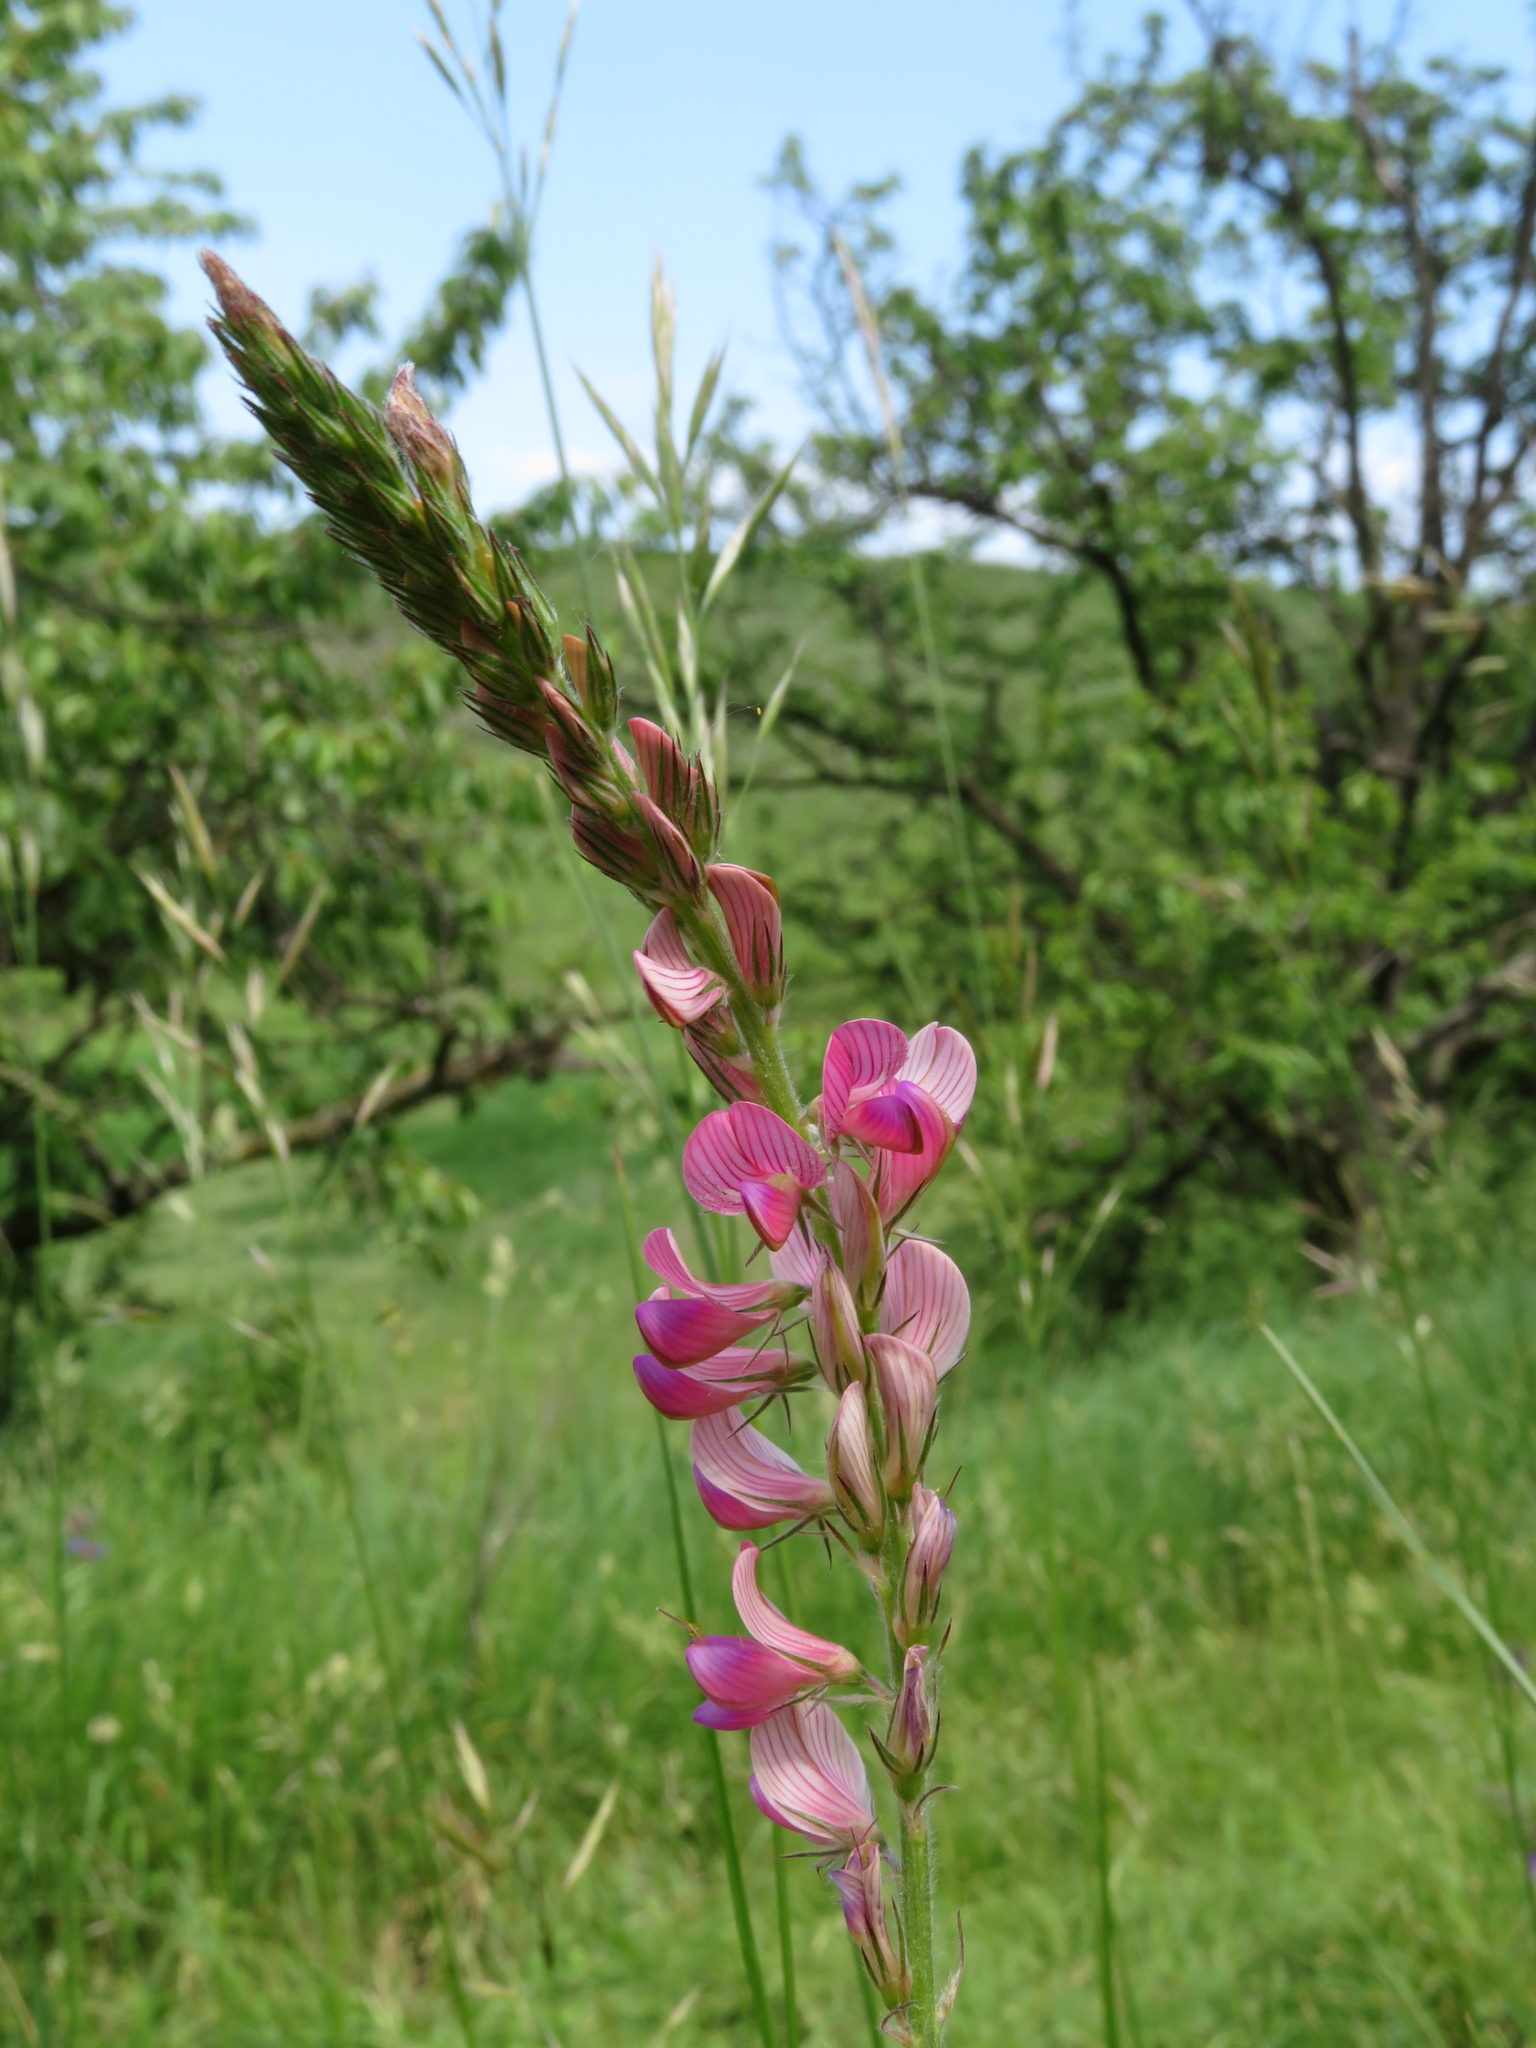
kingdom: Plantae
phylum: Tracheophyta
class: Magnoliopsida
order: Fabales
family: Fabaceae
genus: Onobrychis
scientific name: Onobrychis arenaria
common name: Sand esparcet
